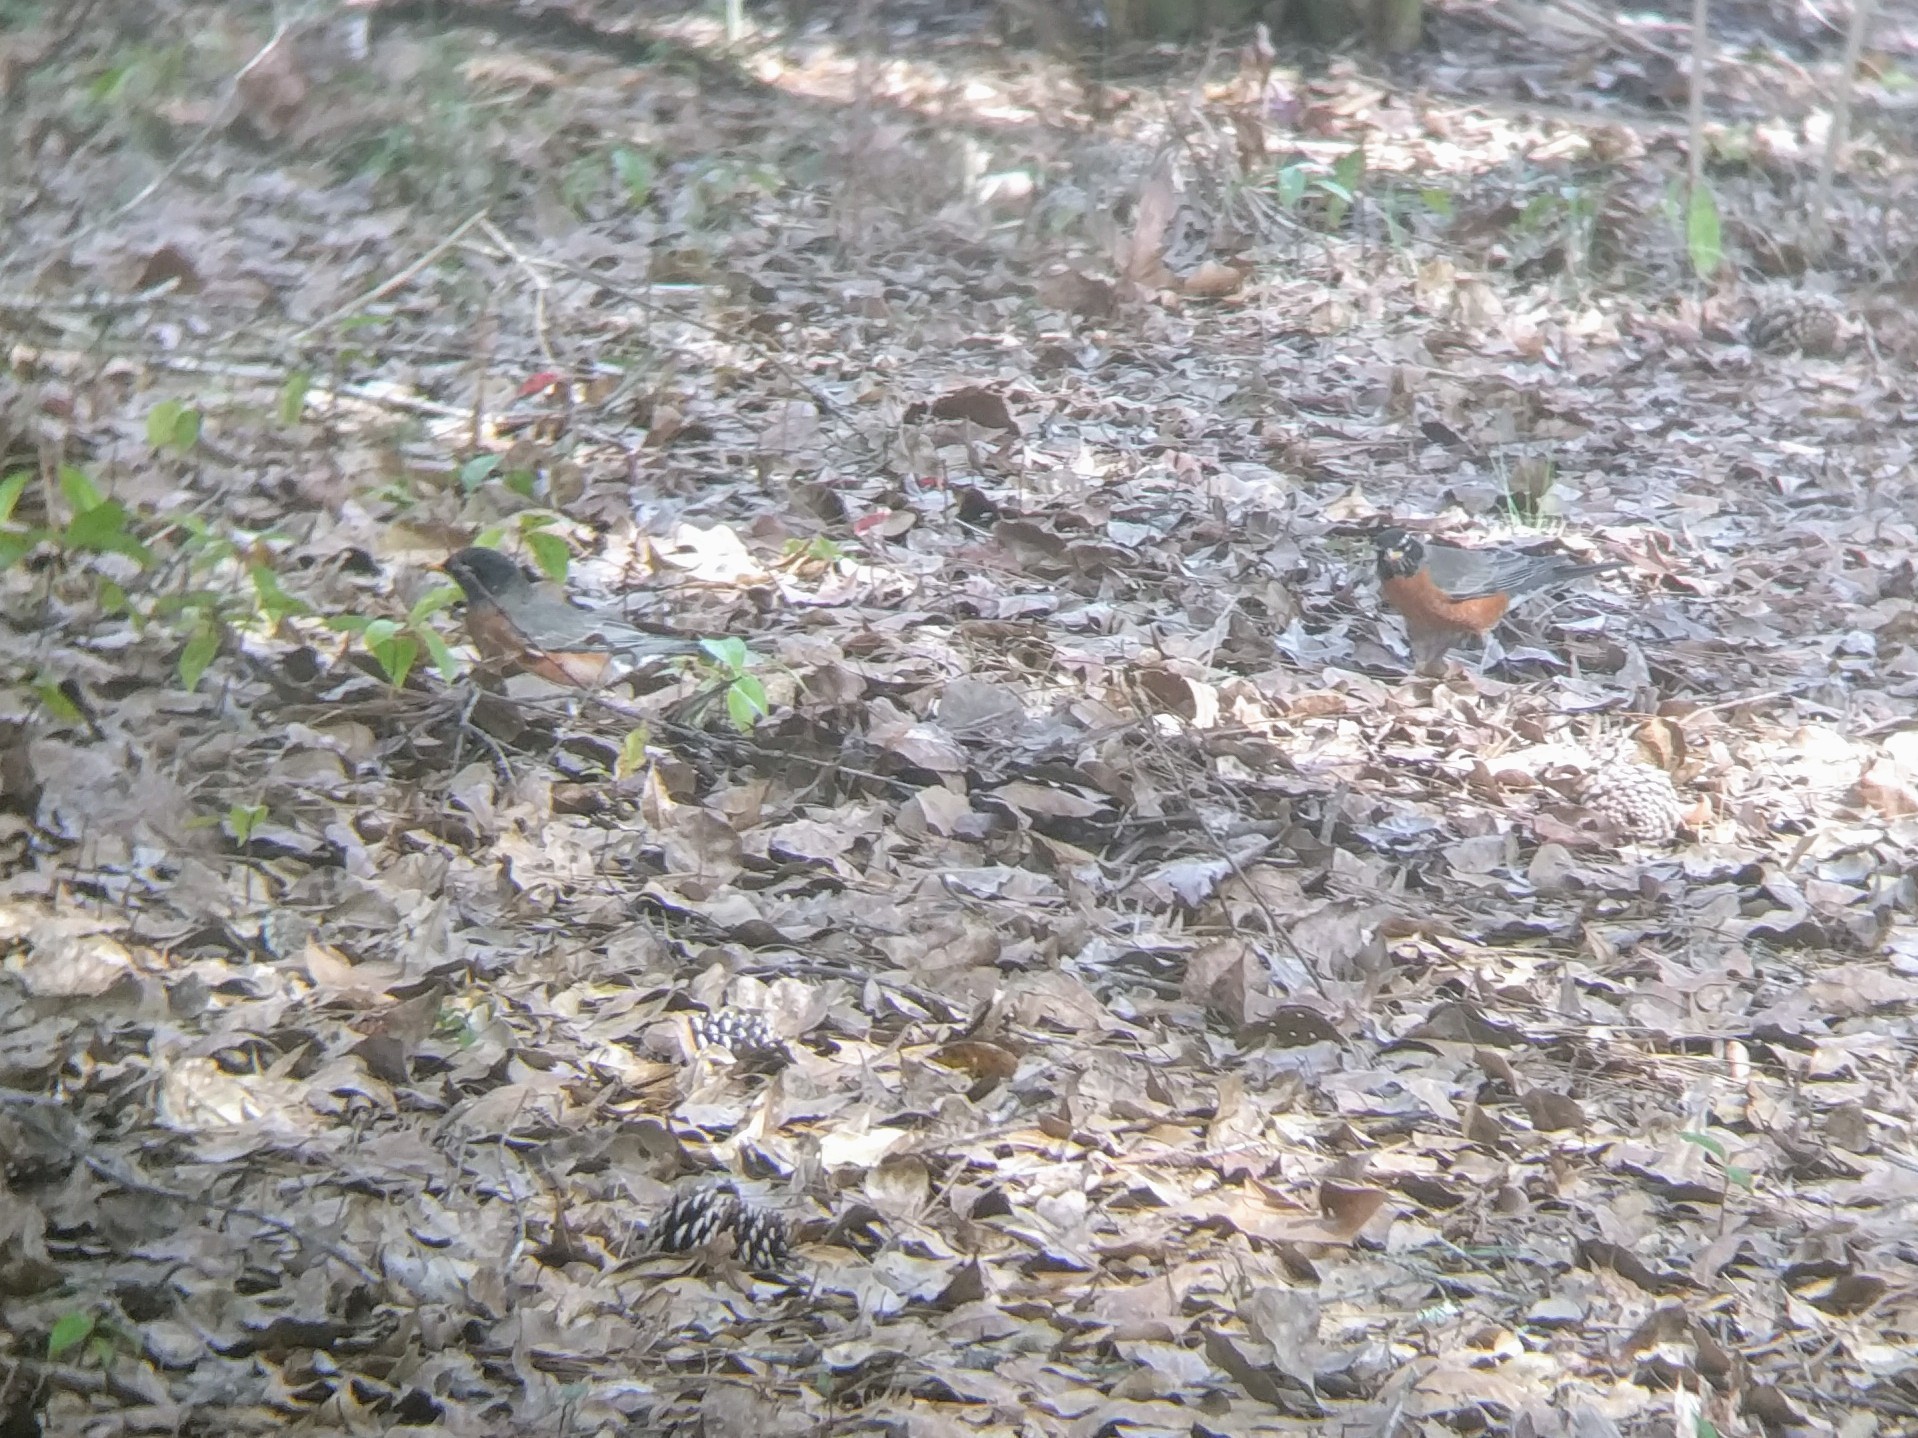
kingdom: Animalia
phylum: Chordata
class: Aves
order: Passeriformes
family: Turdidae
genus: Turdus
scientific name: Turdus migratorius
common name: American robin
